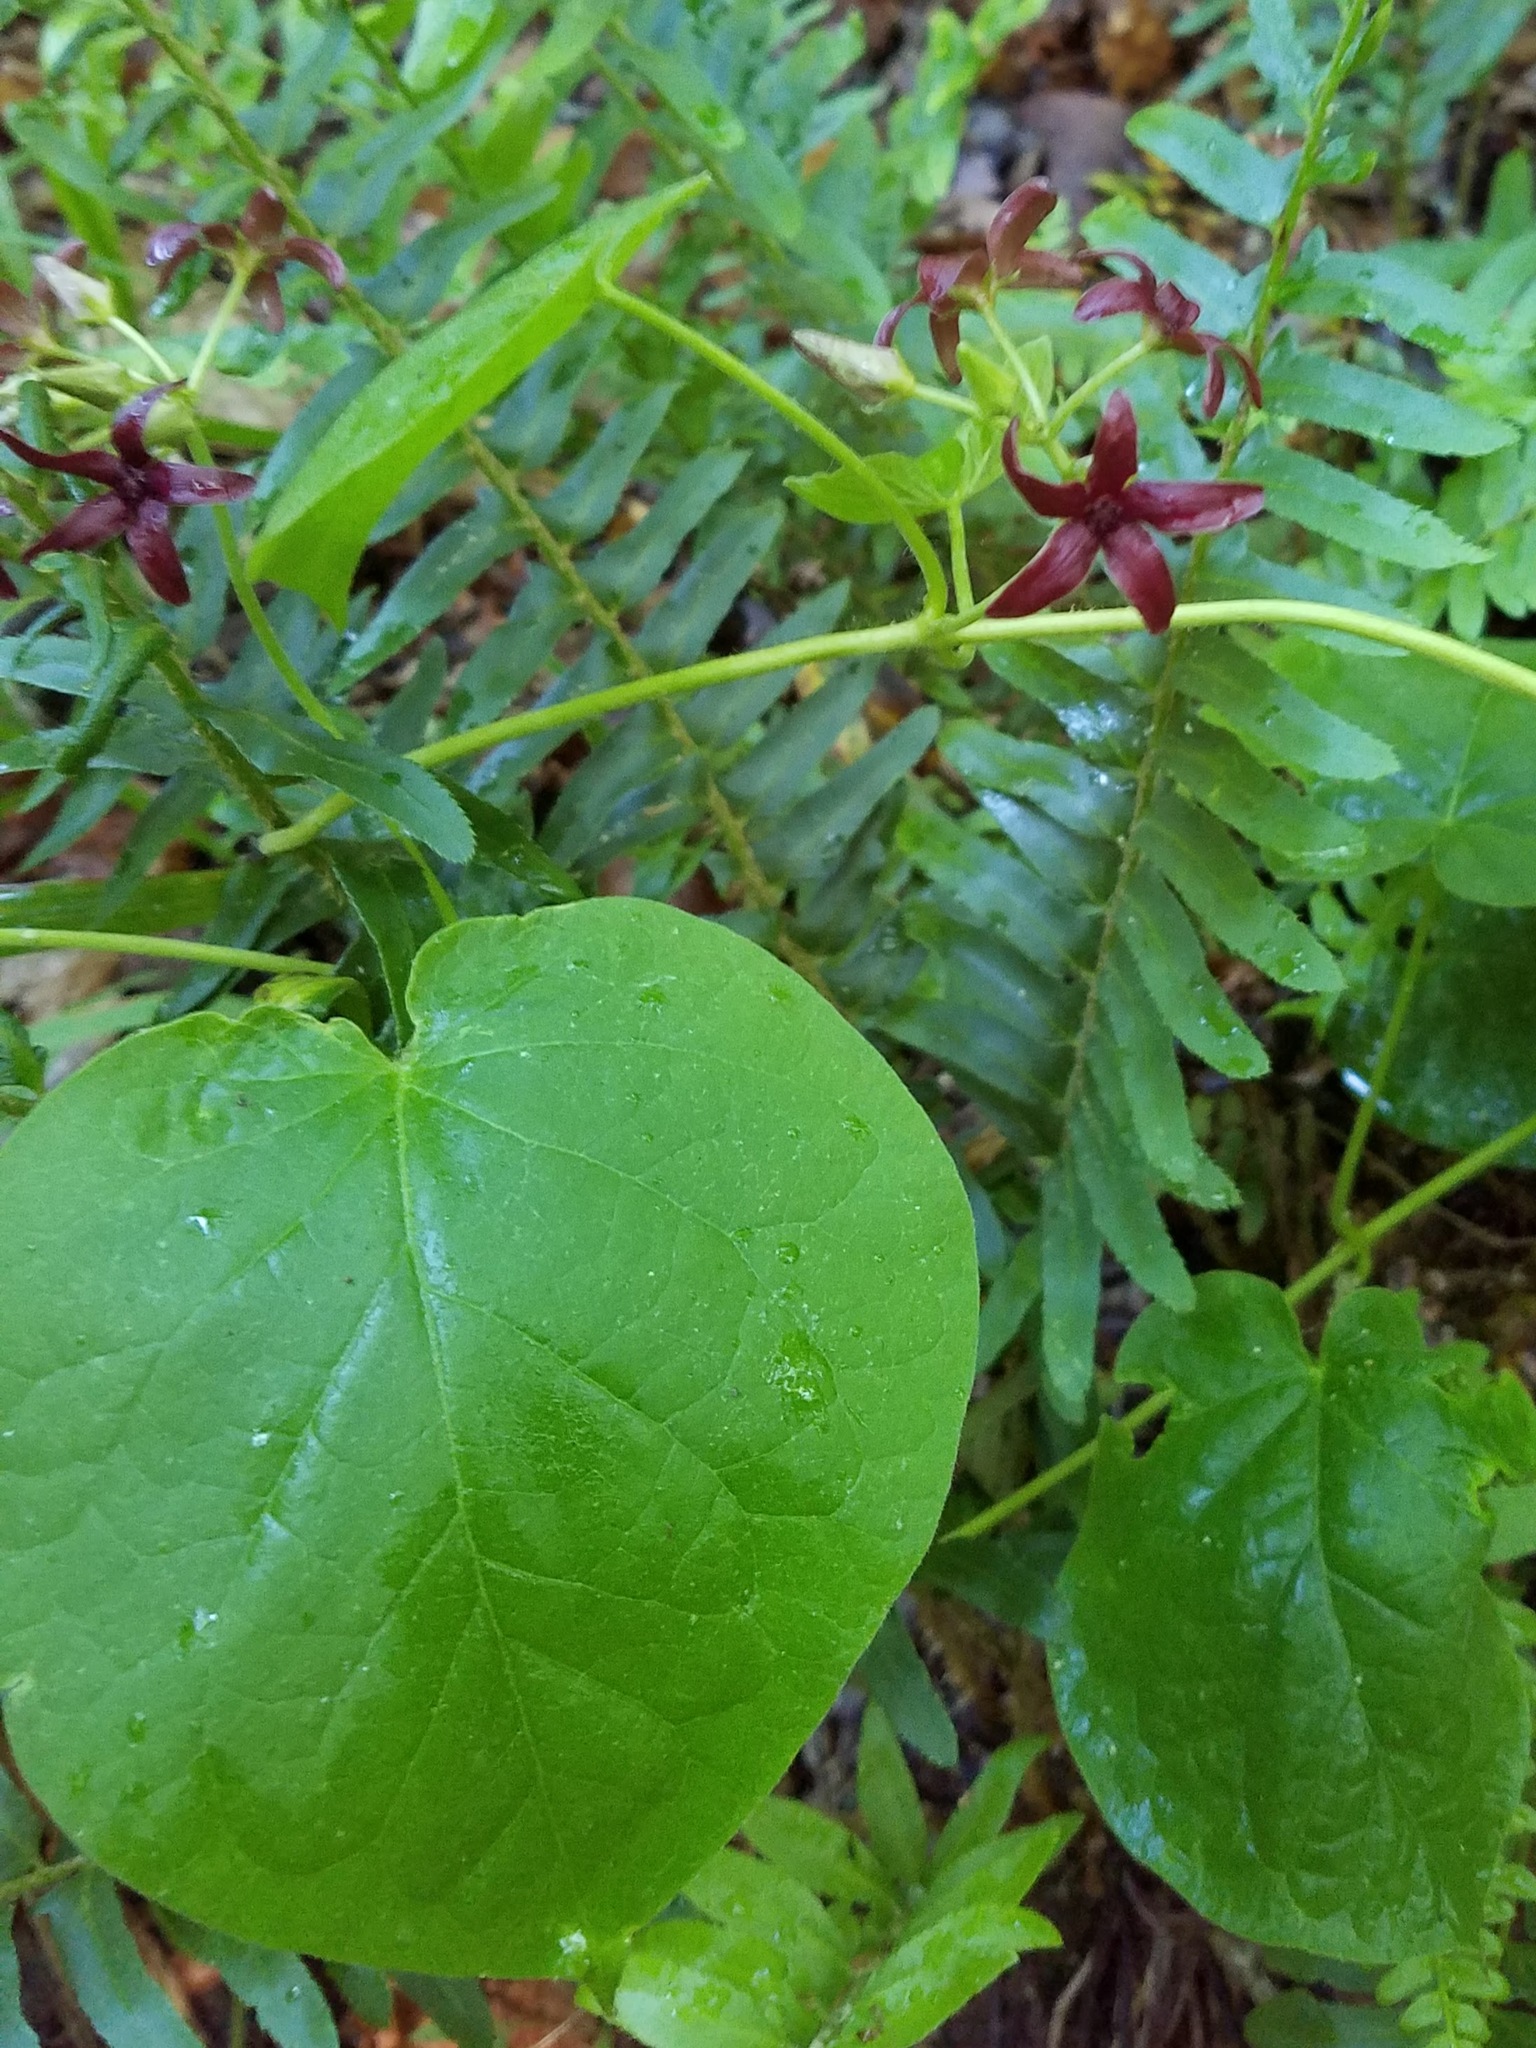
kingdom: Plantae
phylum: Tracheophyta
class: Magnoliopsida
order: Gentianales
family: Apocynaceae
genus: Matelea
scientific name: Matelea carolinensis
